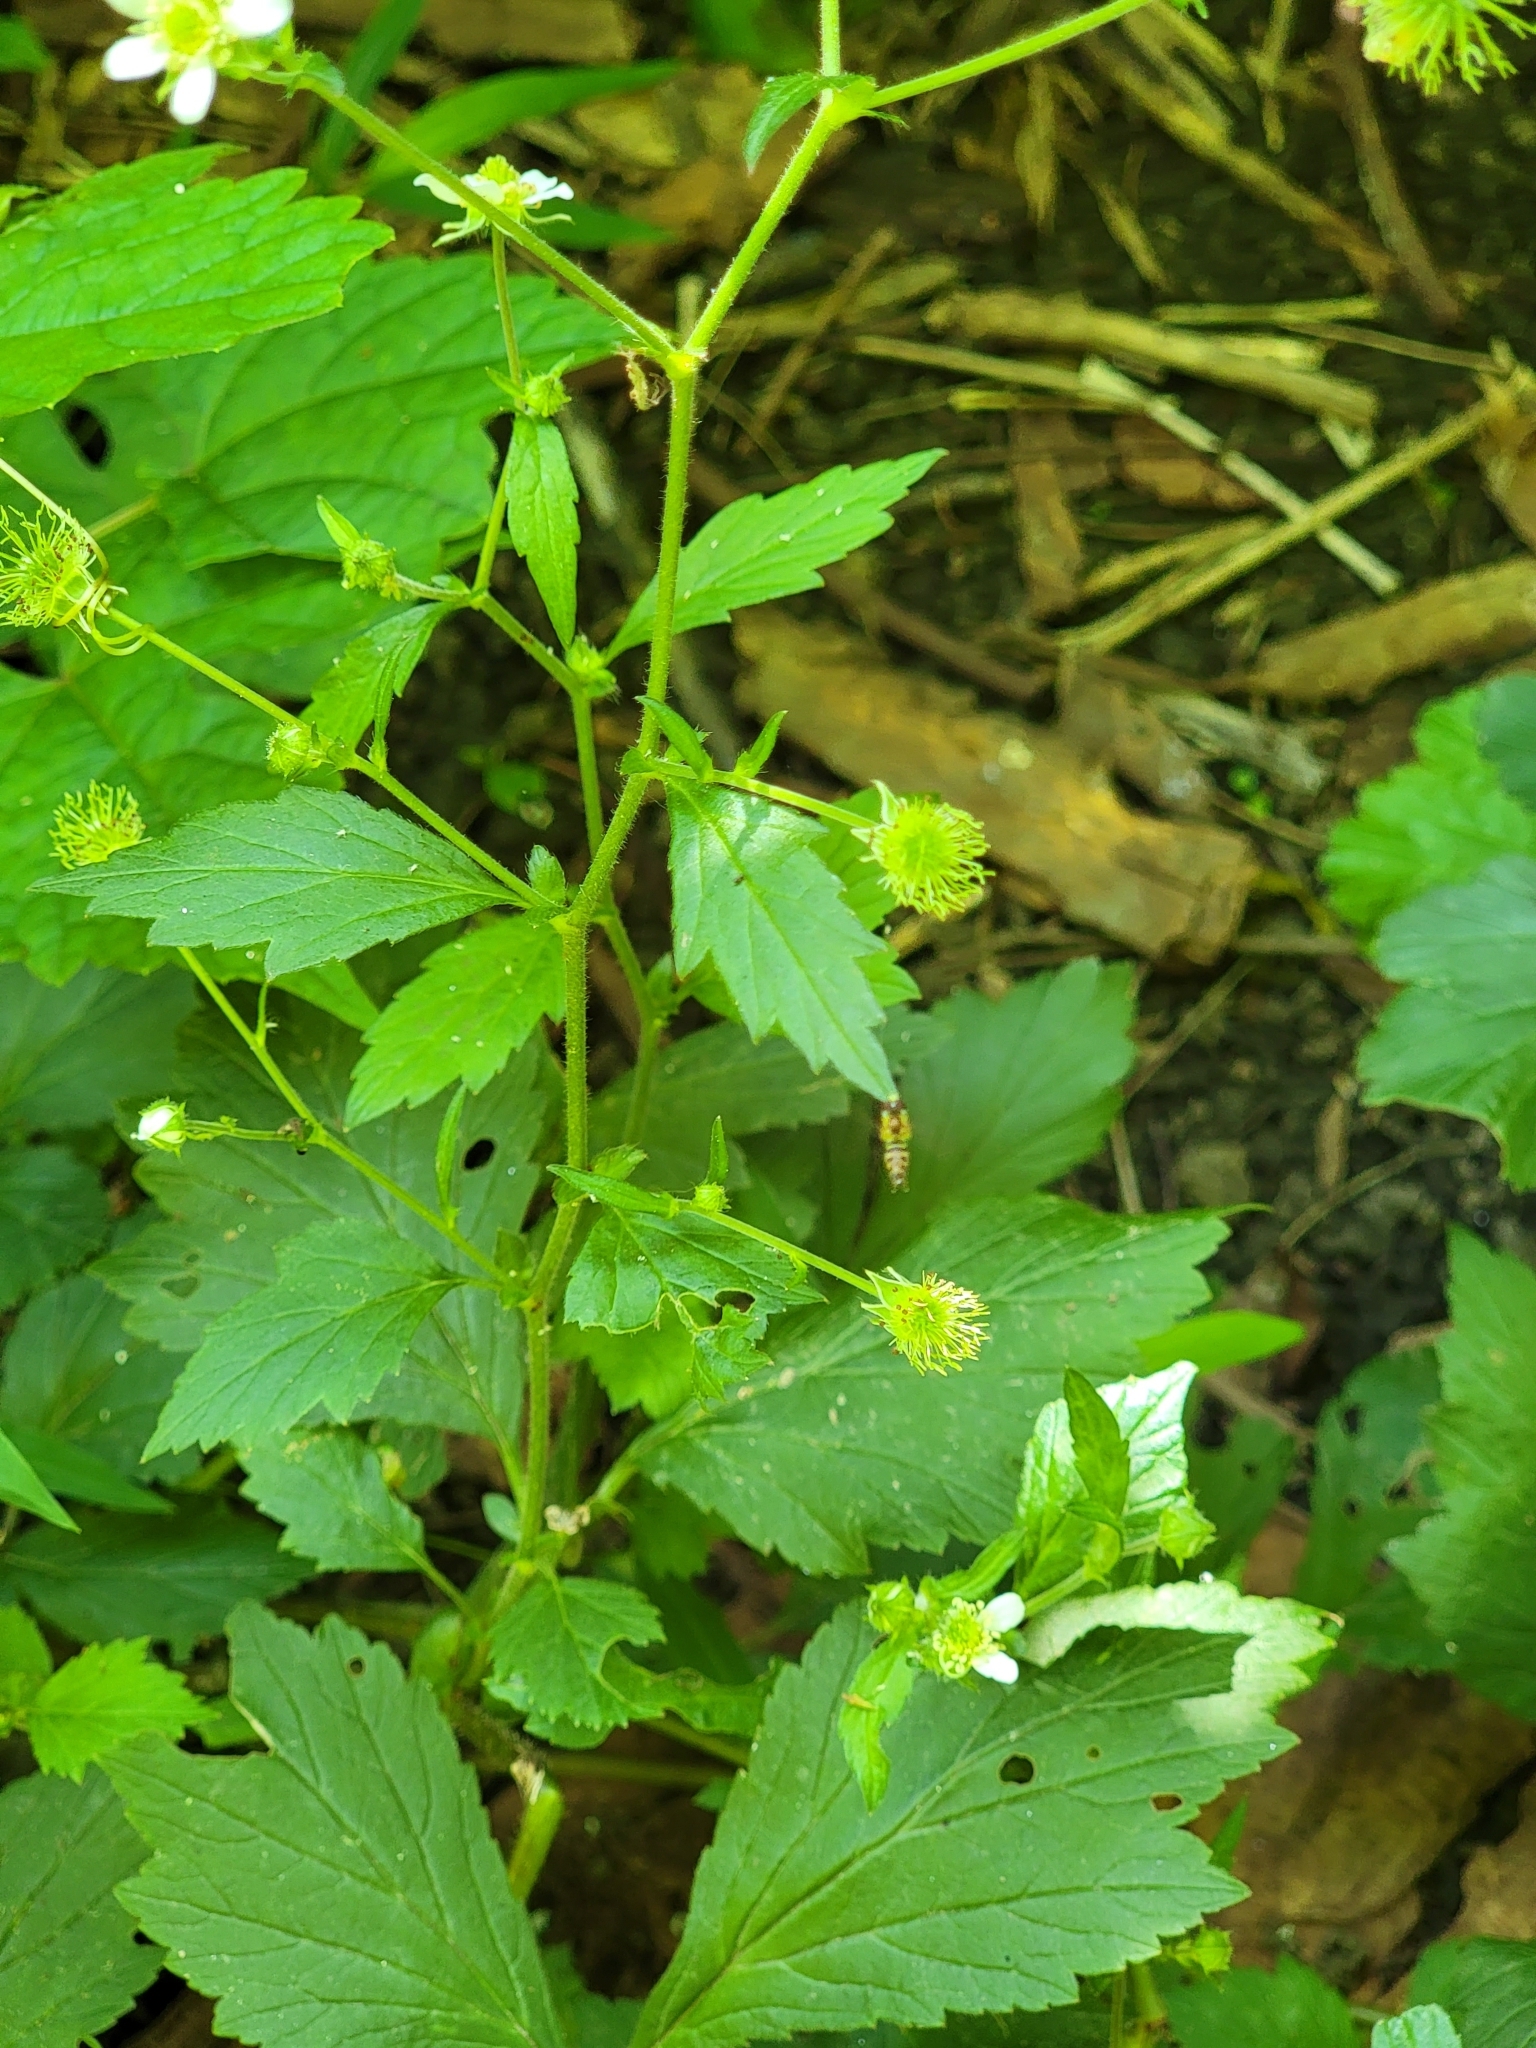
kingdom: Plantae
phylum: Tracheophyta
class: Magnoliopsida
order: Rosales
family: Rosaceae
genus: Geum
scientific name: Geum canadense
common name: White avens
